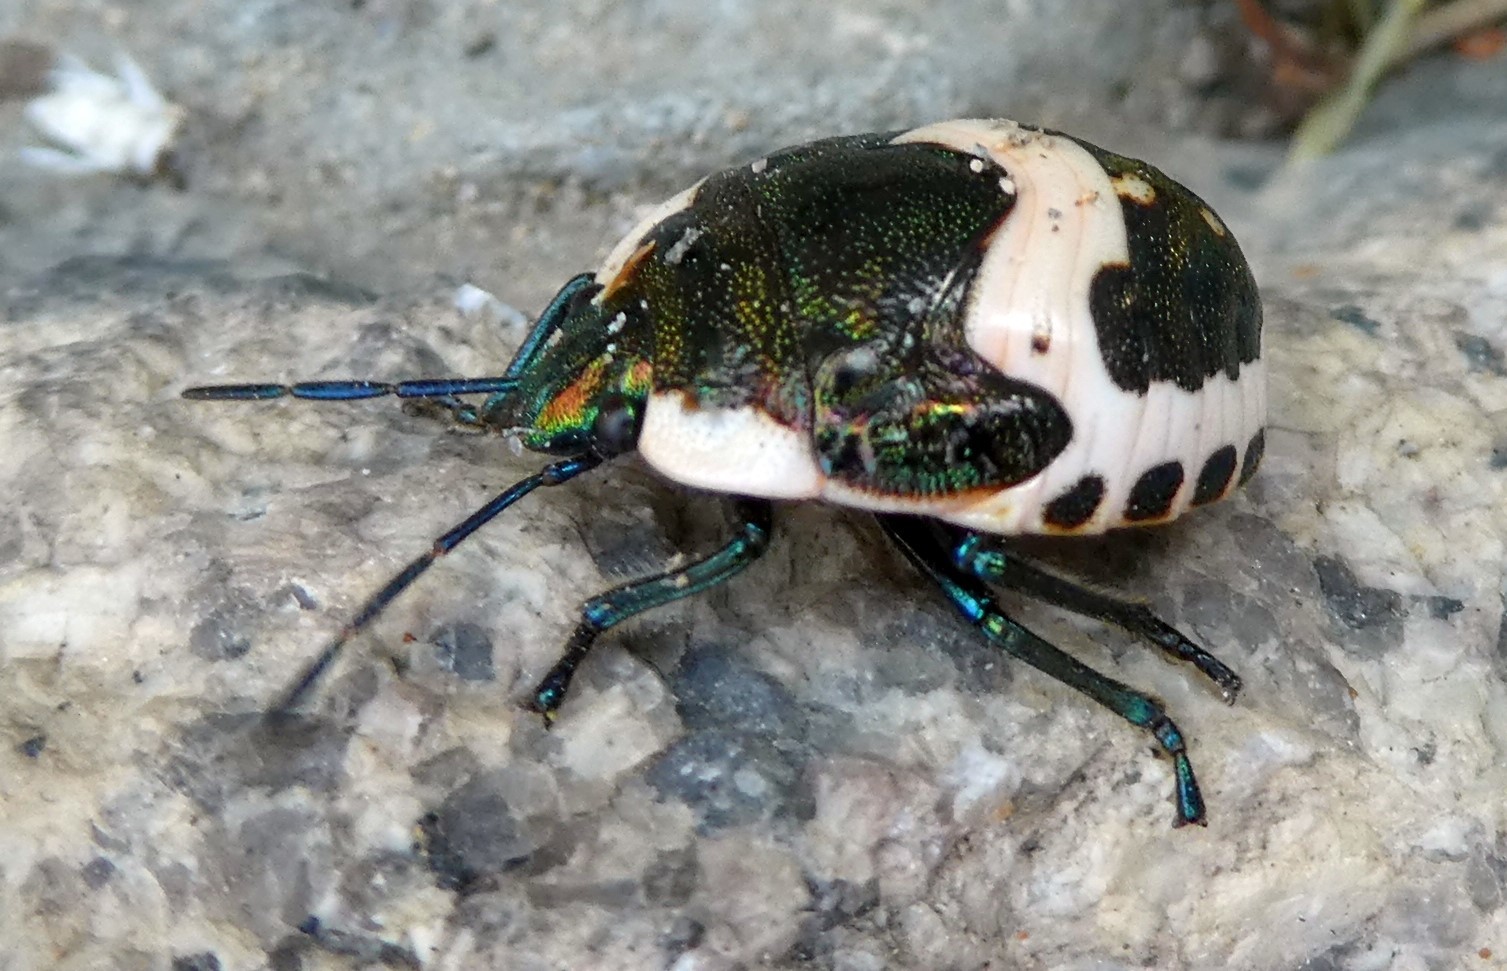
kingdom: Animalia
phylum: Arthropoda
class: Insecta
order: Hemiptera
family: Scutelleridae
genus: Poecilocoris
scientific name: Poecilocoris lewisi
